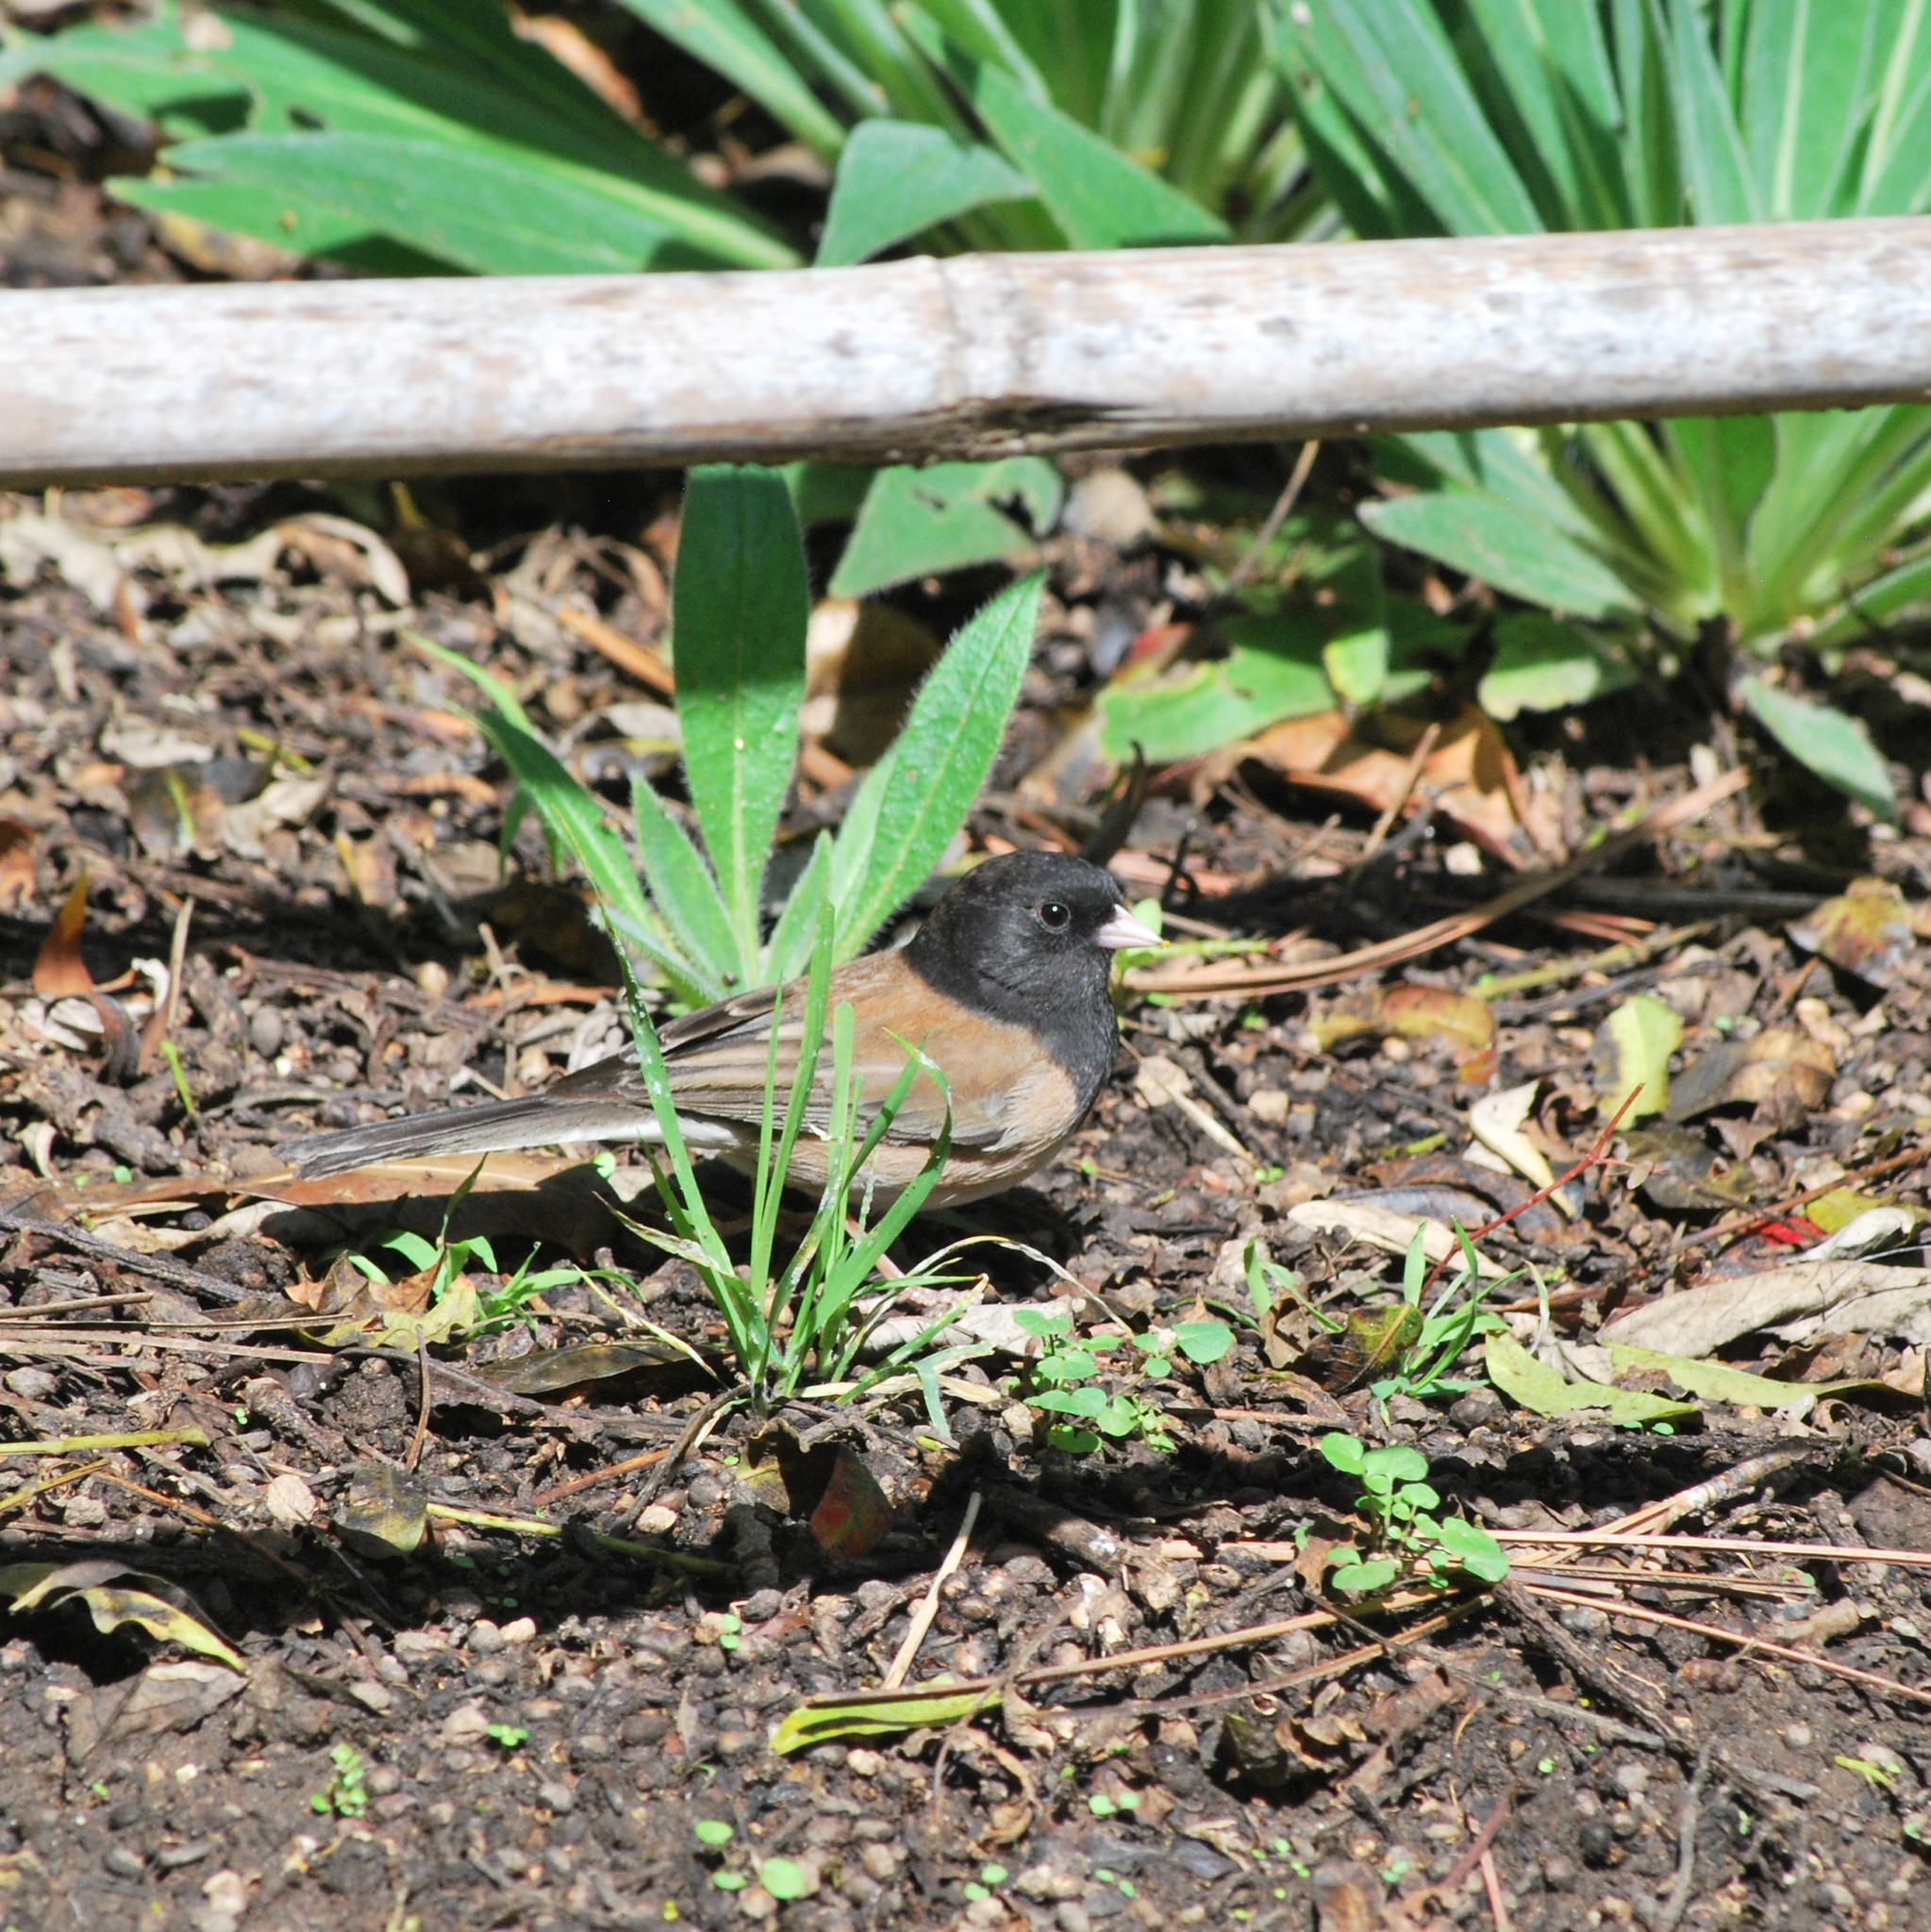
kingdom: Animalia
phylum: Chordata
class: Aves
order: Passeriformes
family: Passerellidae
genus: Junco
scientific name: Junco hyemalis
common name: Dark-eyed junco
